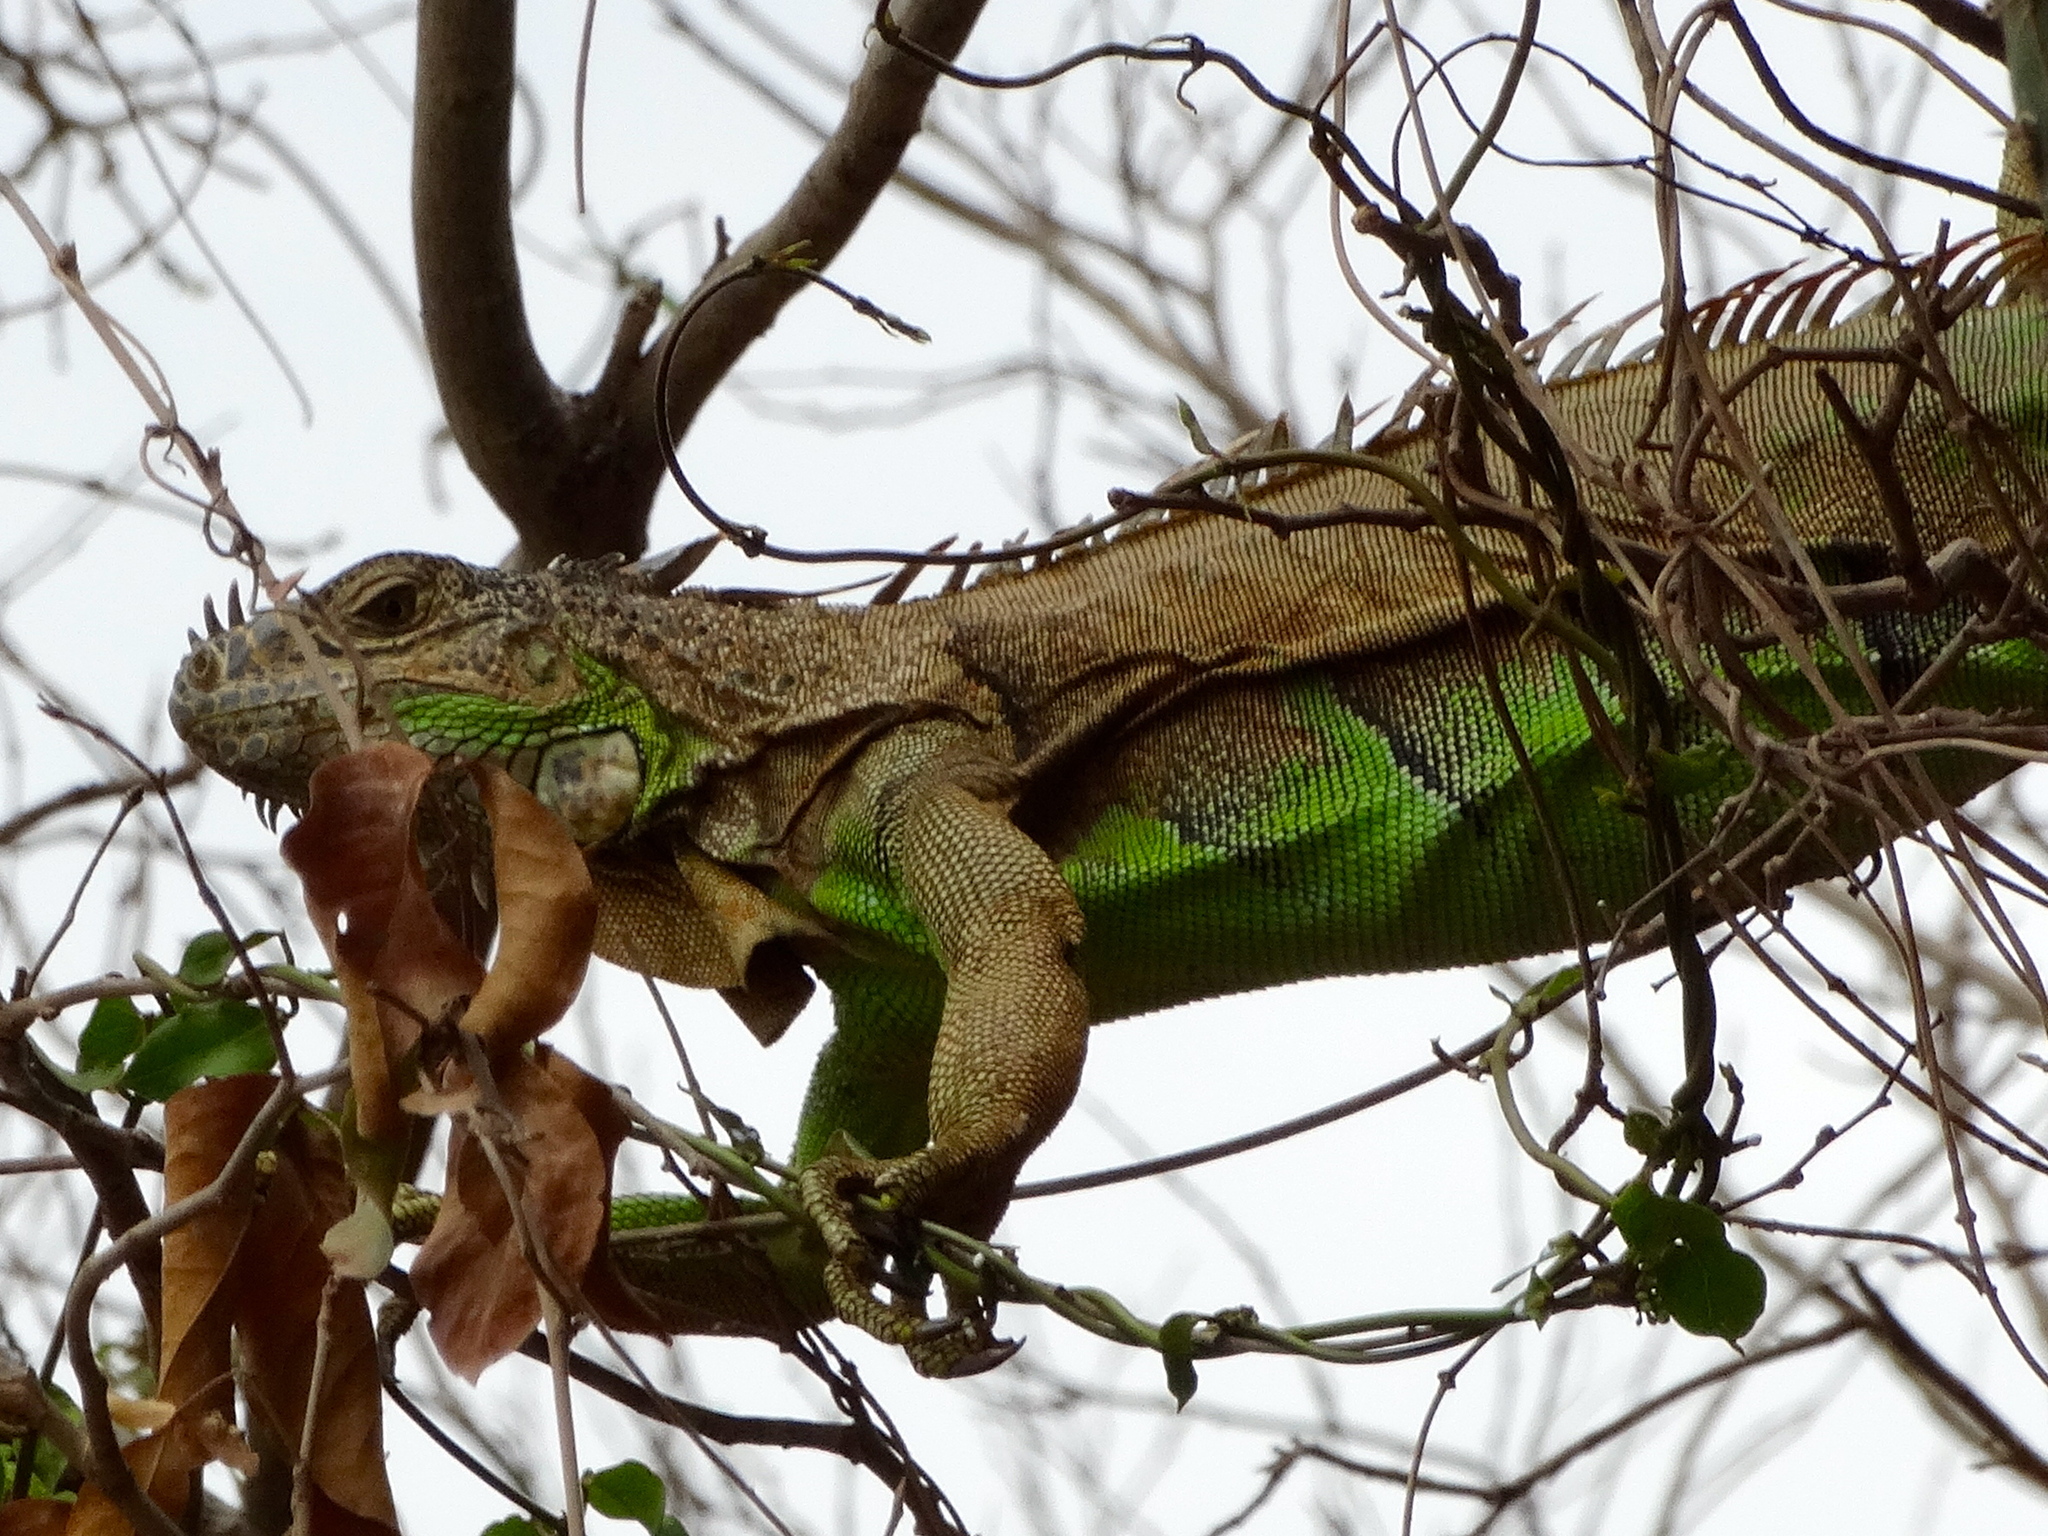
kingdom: Animalia
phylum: Chordata
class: Squamata
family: Iguanidae
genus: Iguana
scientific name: Iguana iguana
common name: Green iguana
